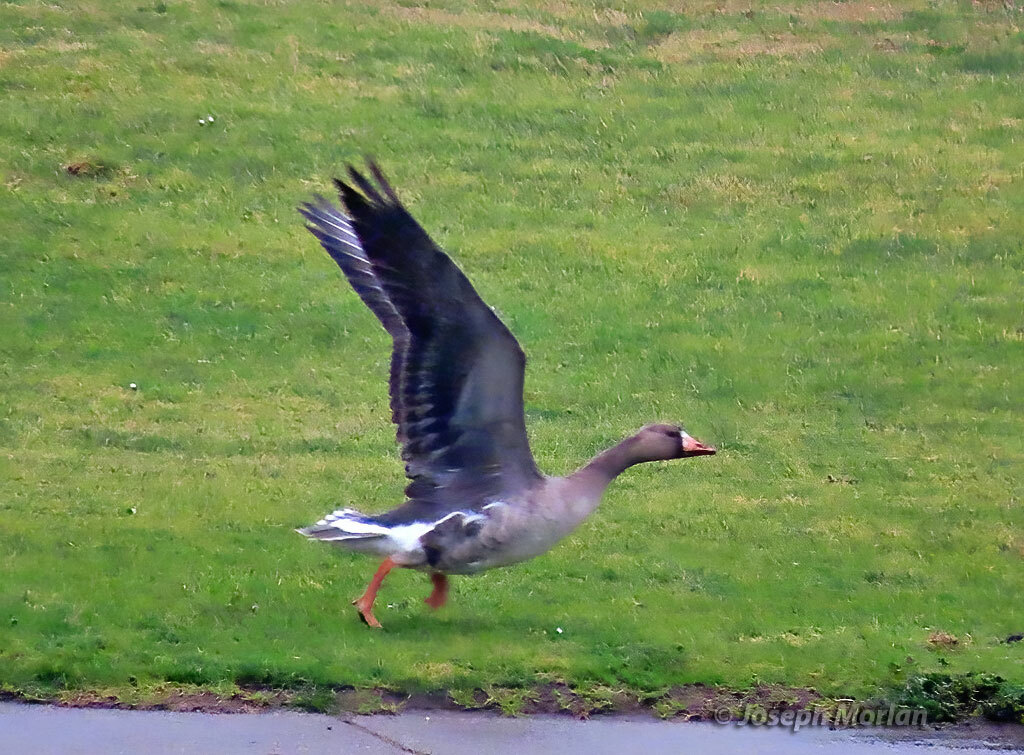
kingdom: Animalia
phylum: Chordata
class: Aves
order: Anseriformes
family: Anatidae
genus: Anser
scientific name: Anser albifrons
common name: Greater white-fronted goose
